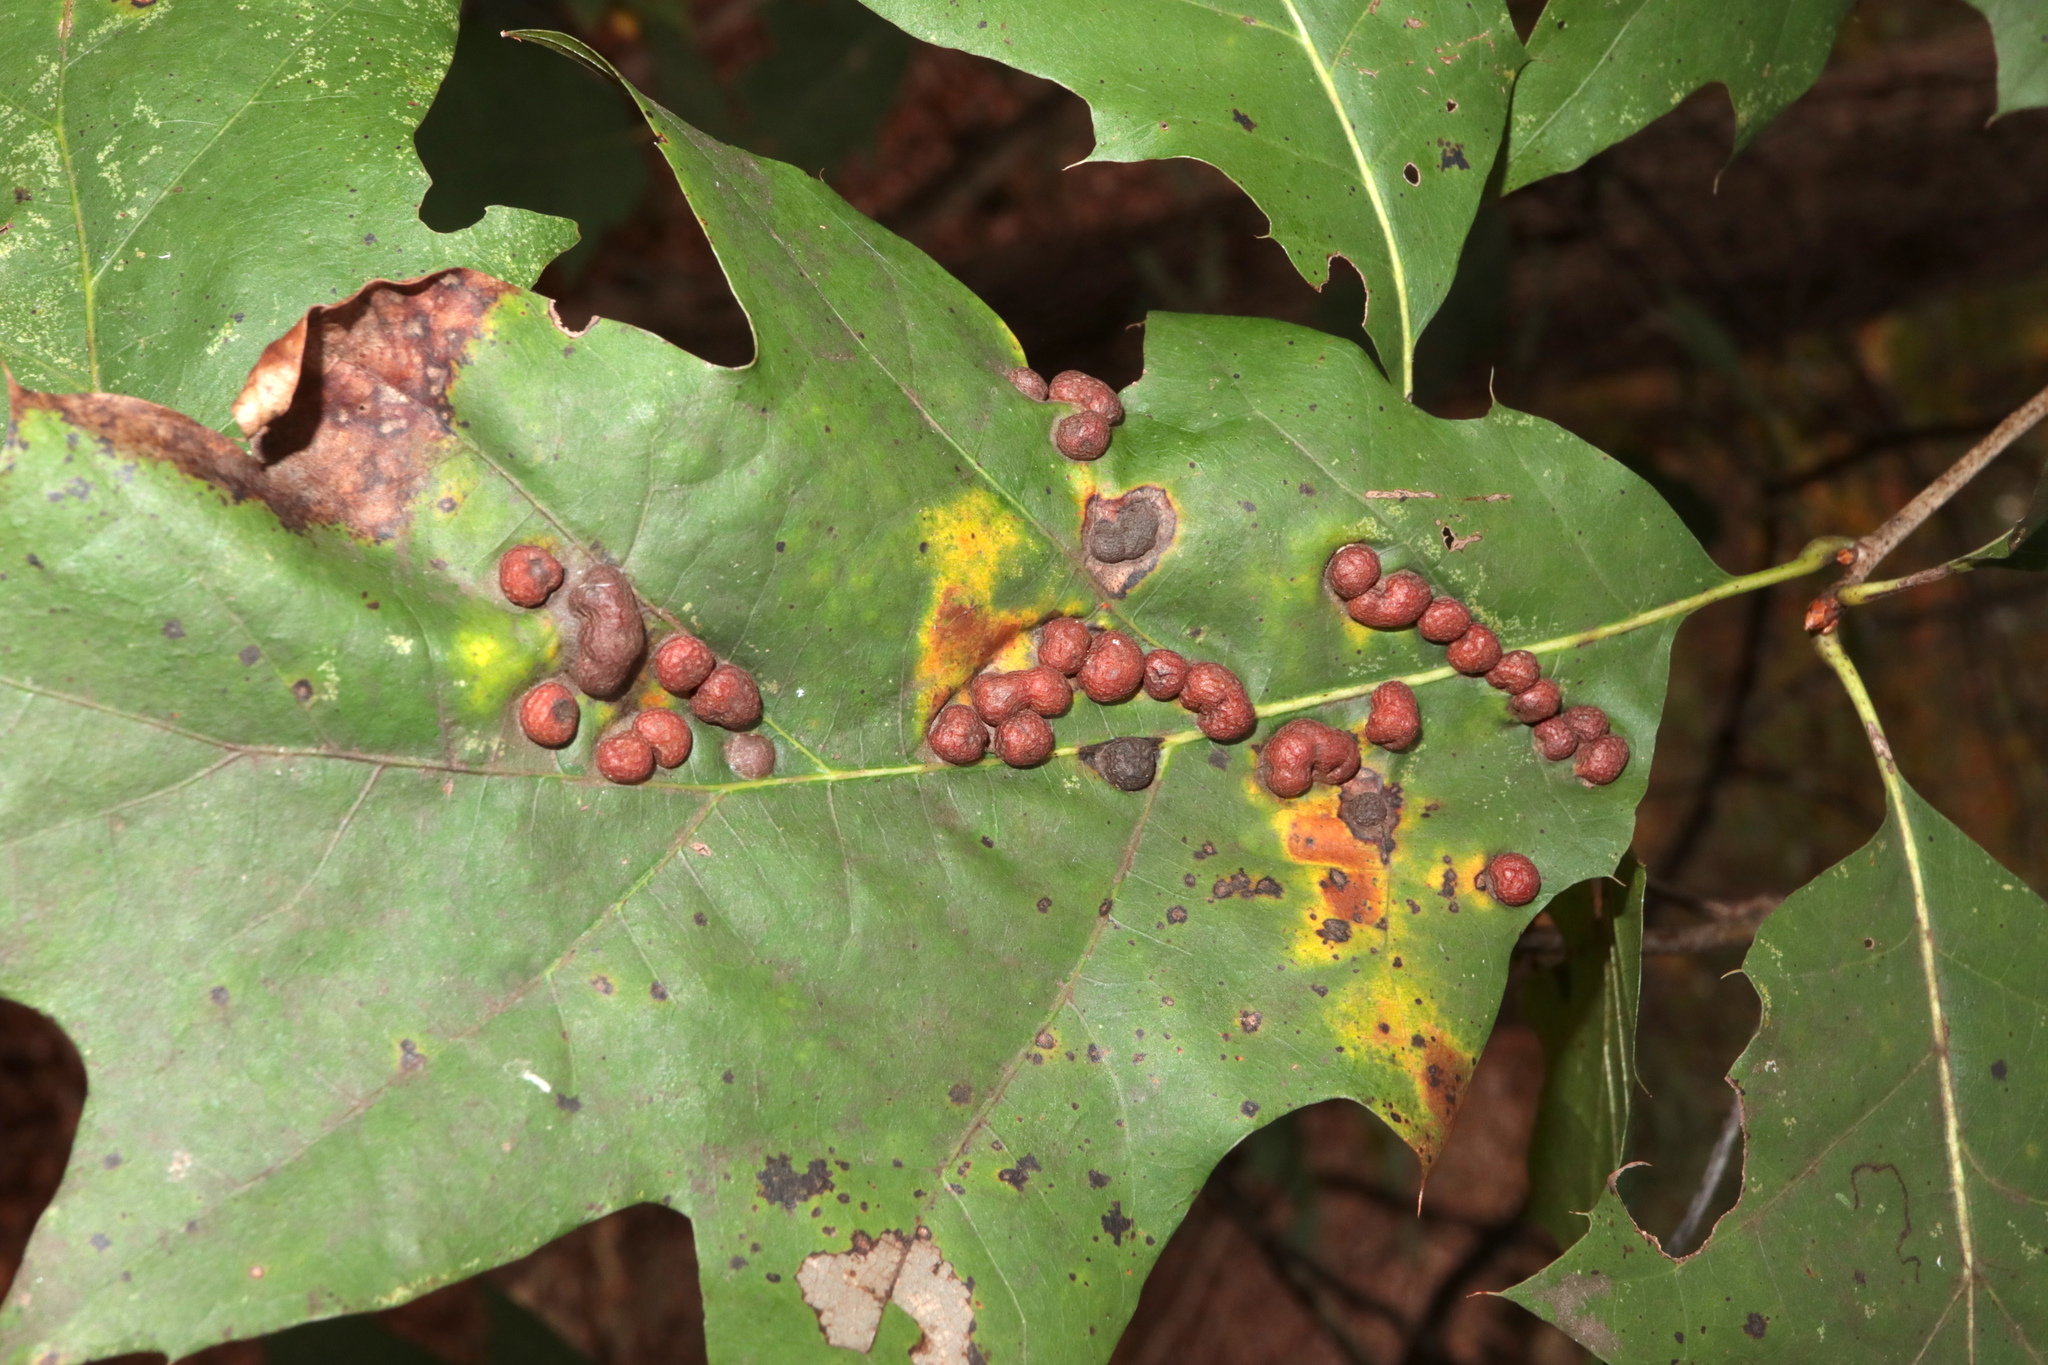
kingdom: Animalia
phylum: Arthropoda
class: Insecta
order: Diptera
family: Cecidomyiidae
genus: Polystepha
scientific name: Polystepha pilulae
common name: Oak leaf gall midge
